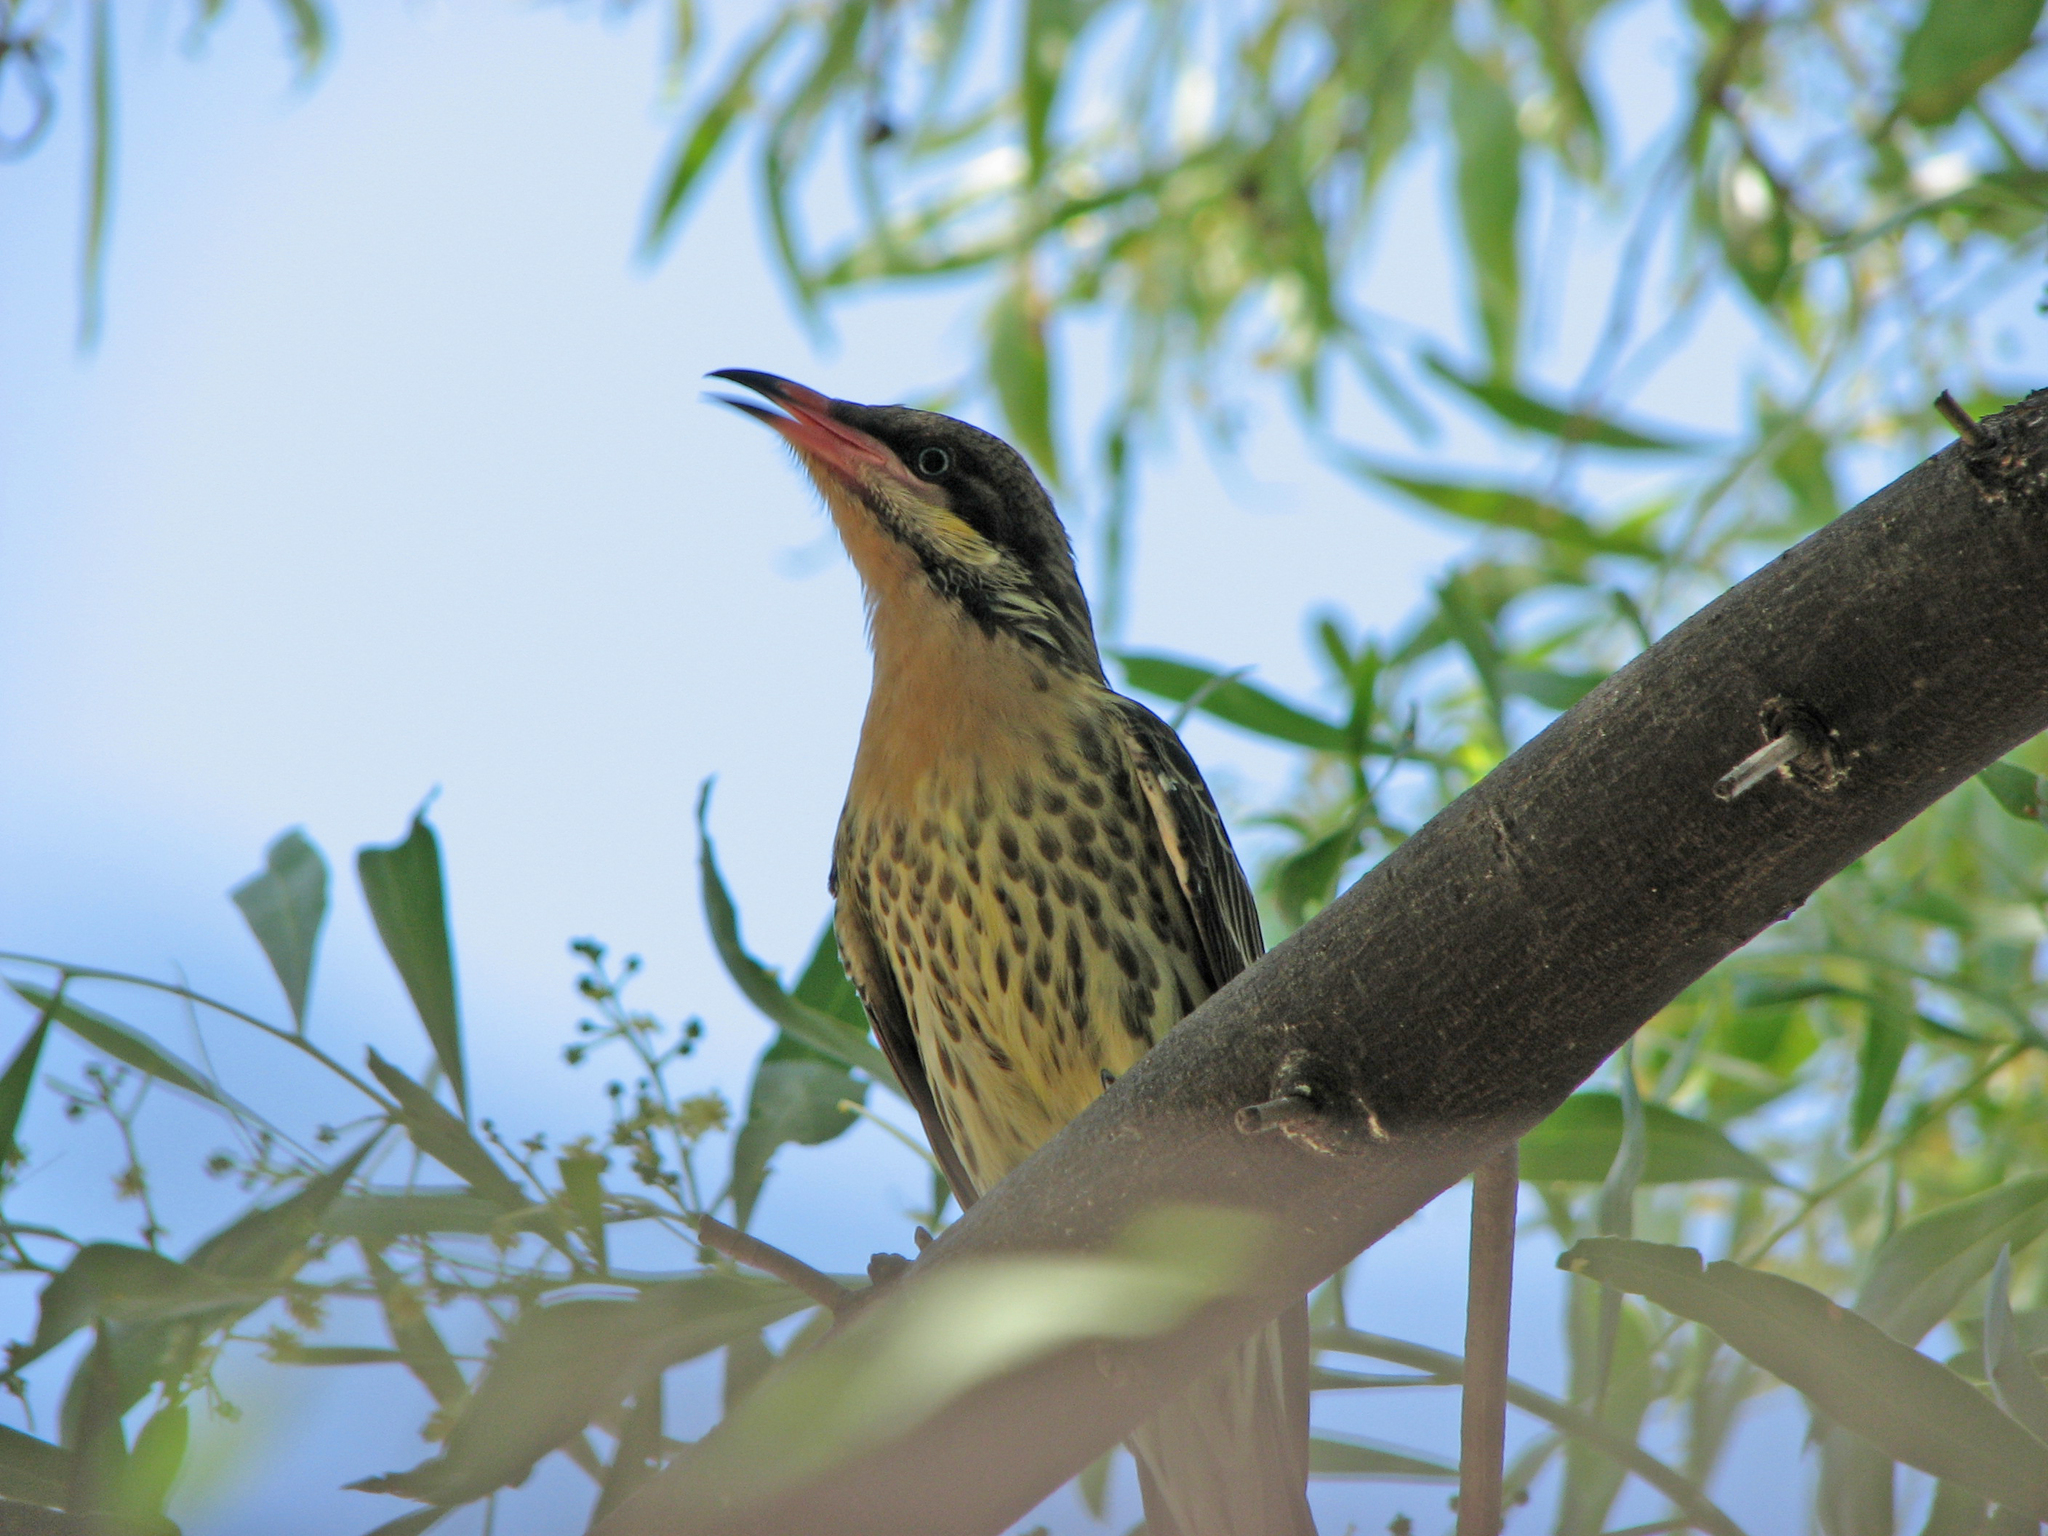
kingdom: Animalia
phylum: Chordata
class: Aves
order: Passeriformes
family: Meliphagidae
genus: Acanthagenys
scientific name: Acanthagenys rufogularis
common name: Spiny-cheeked honeyeater
